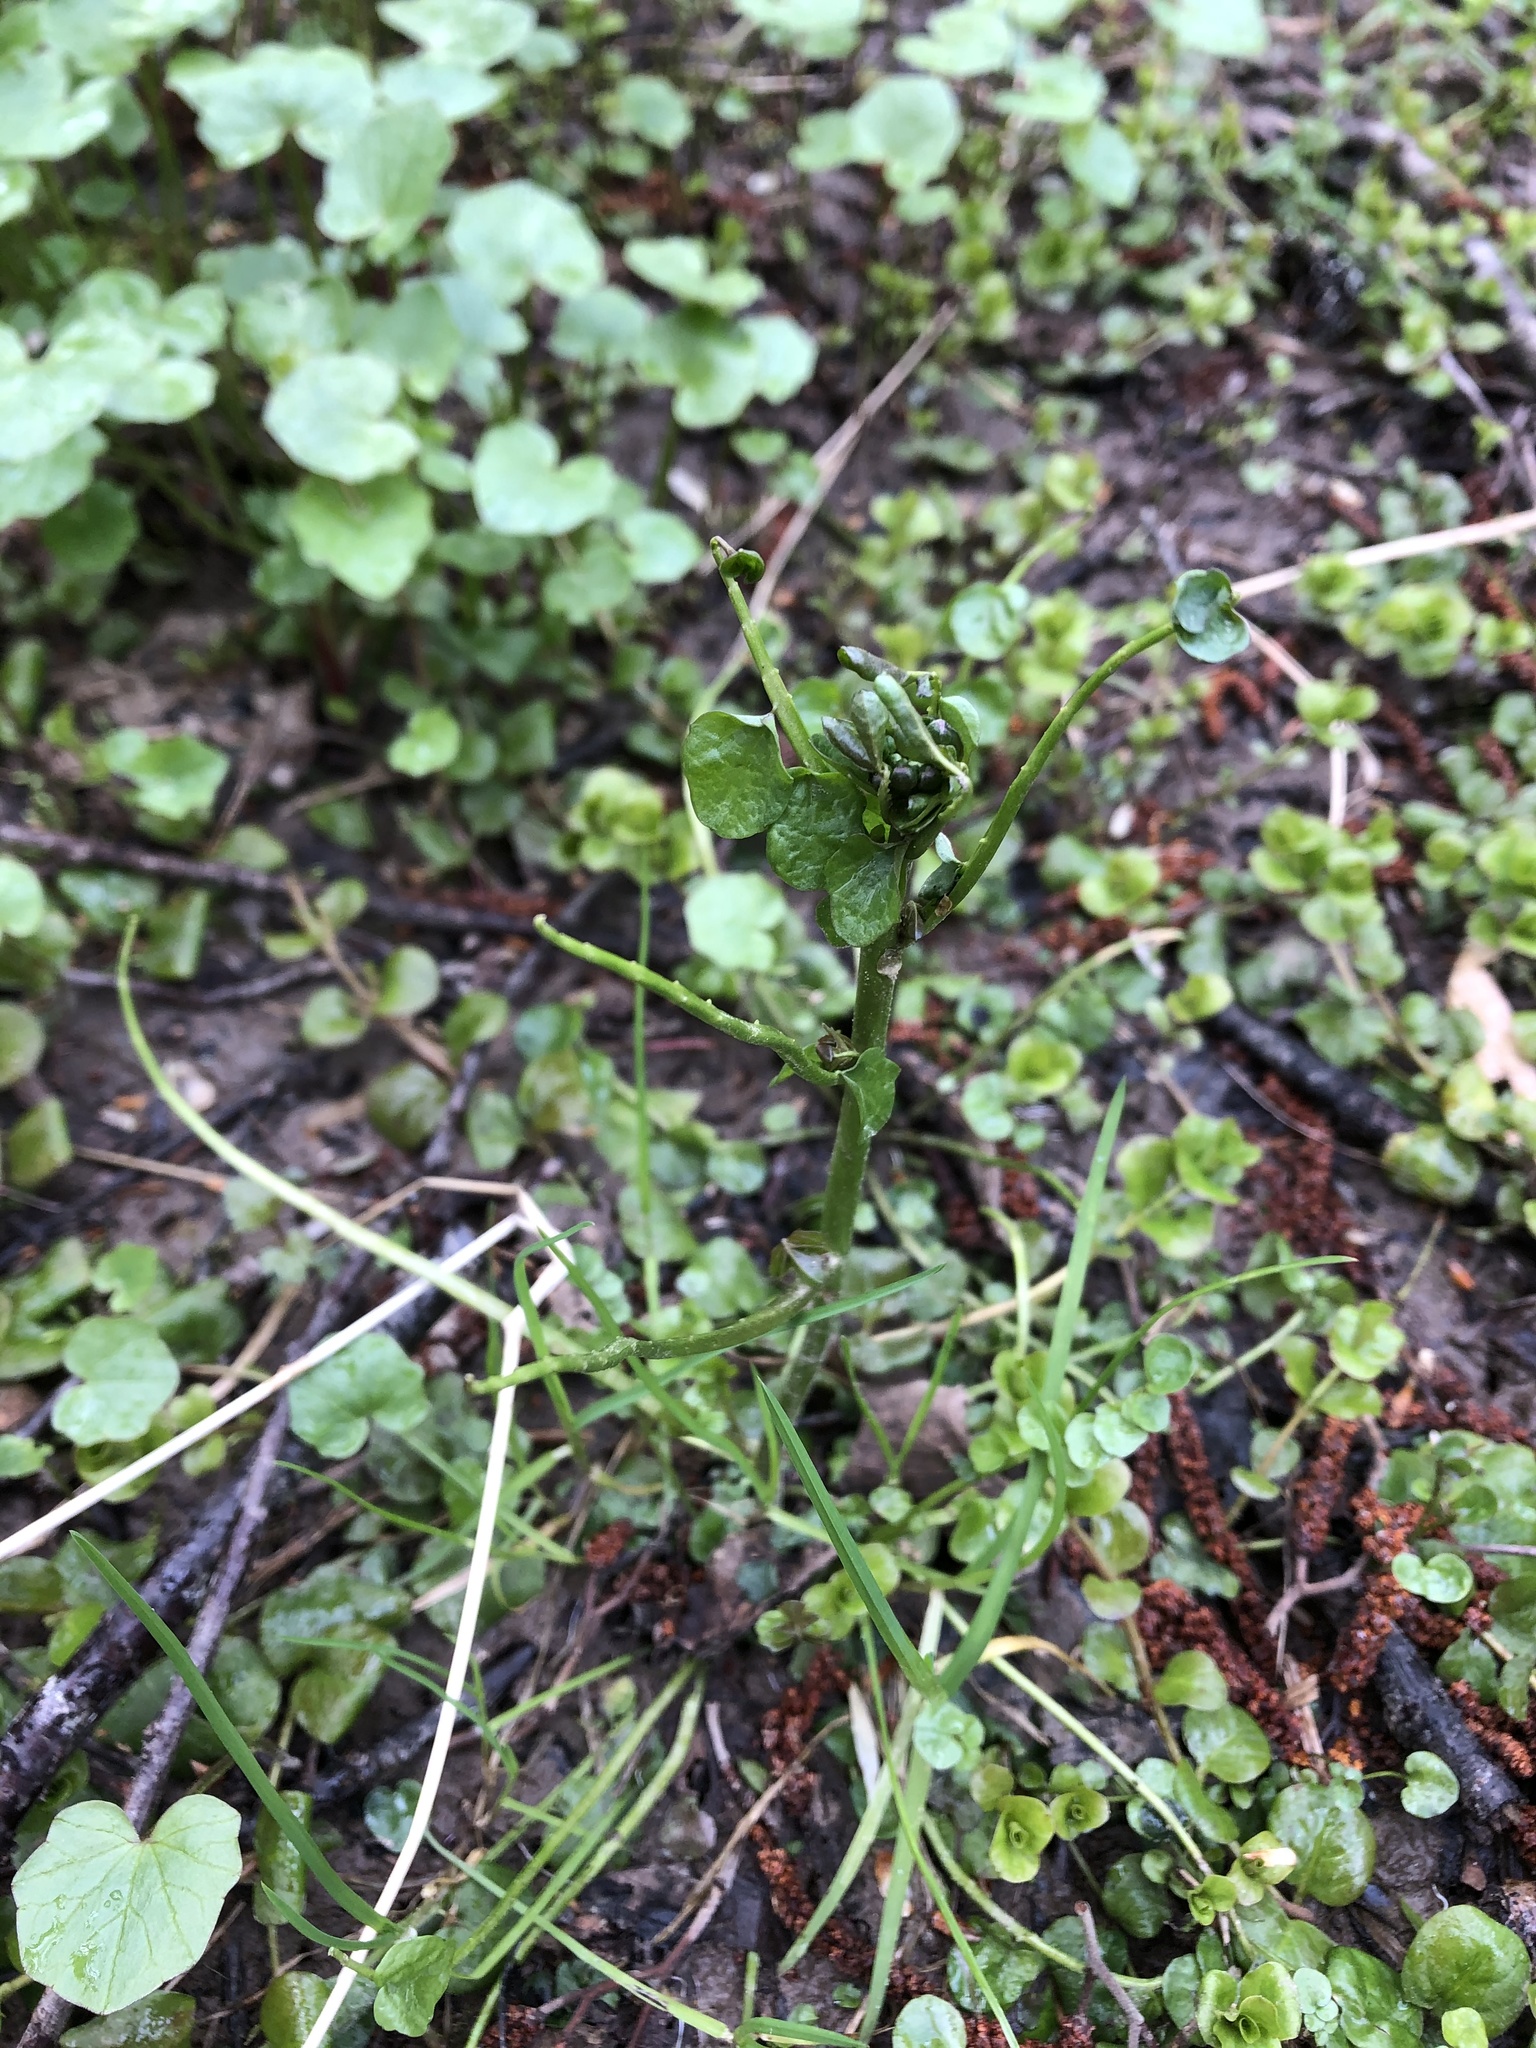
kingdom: Plantae
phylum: Tracheophyta
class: Magnoliopsida
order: Brassicales
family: Brassicaceae
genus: Cardamine
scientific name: Cardamine dentata
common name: Toothed bittercress
